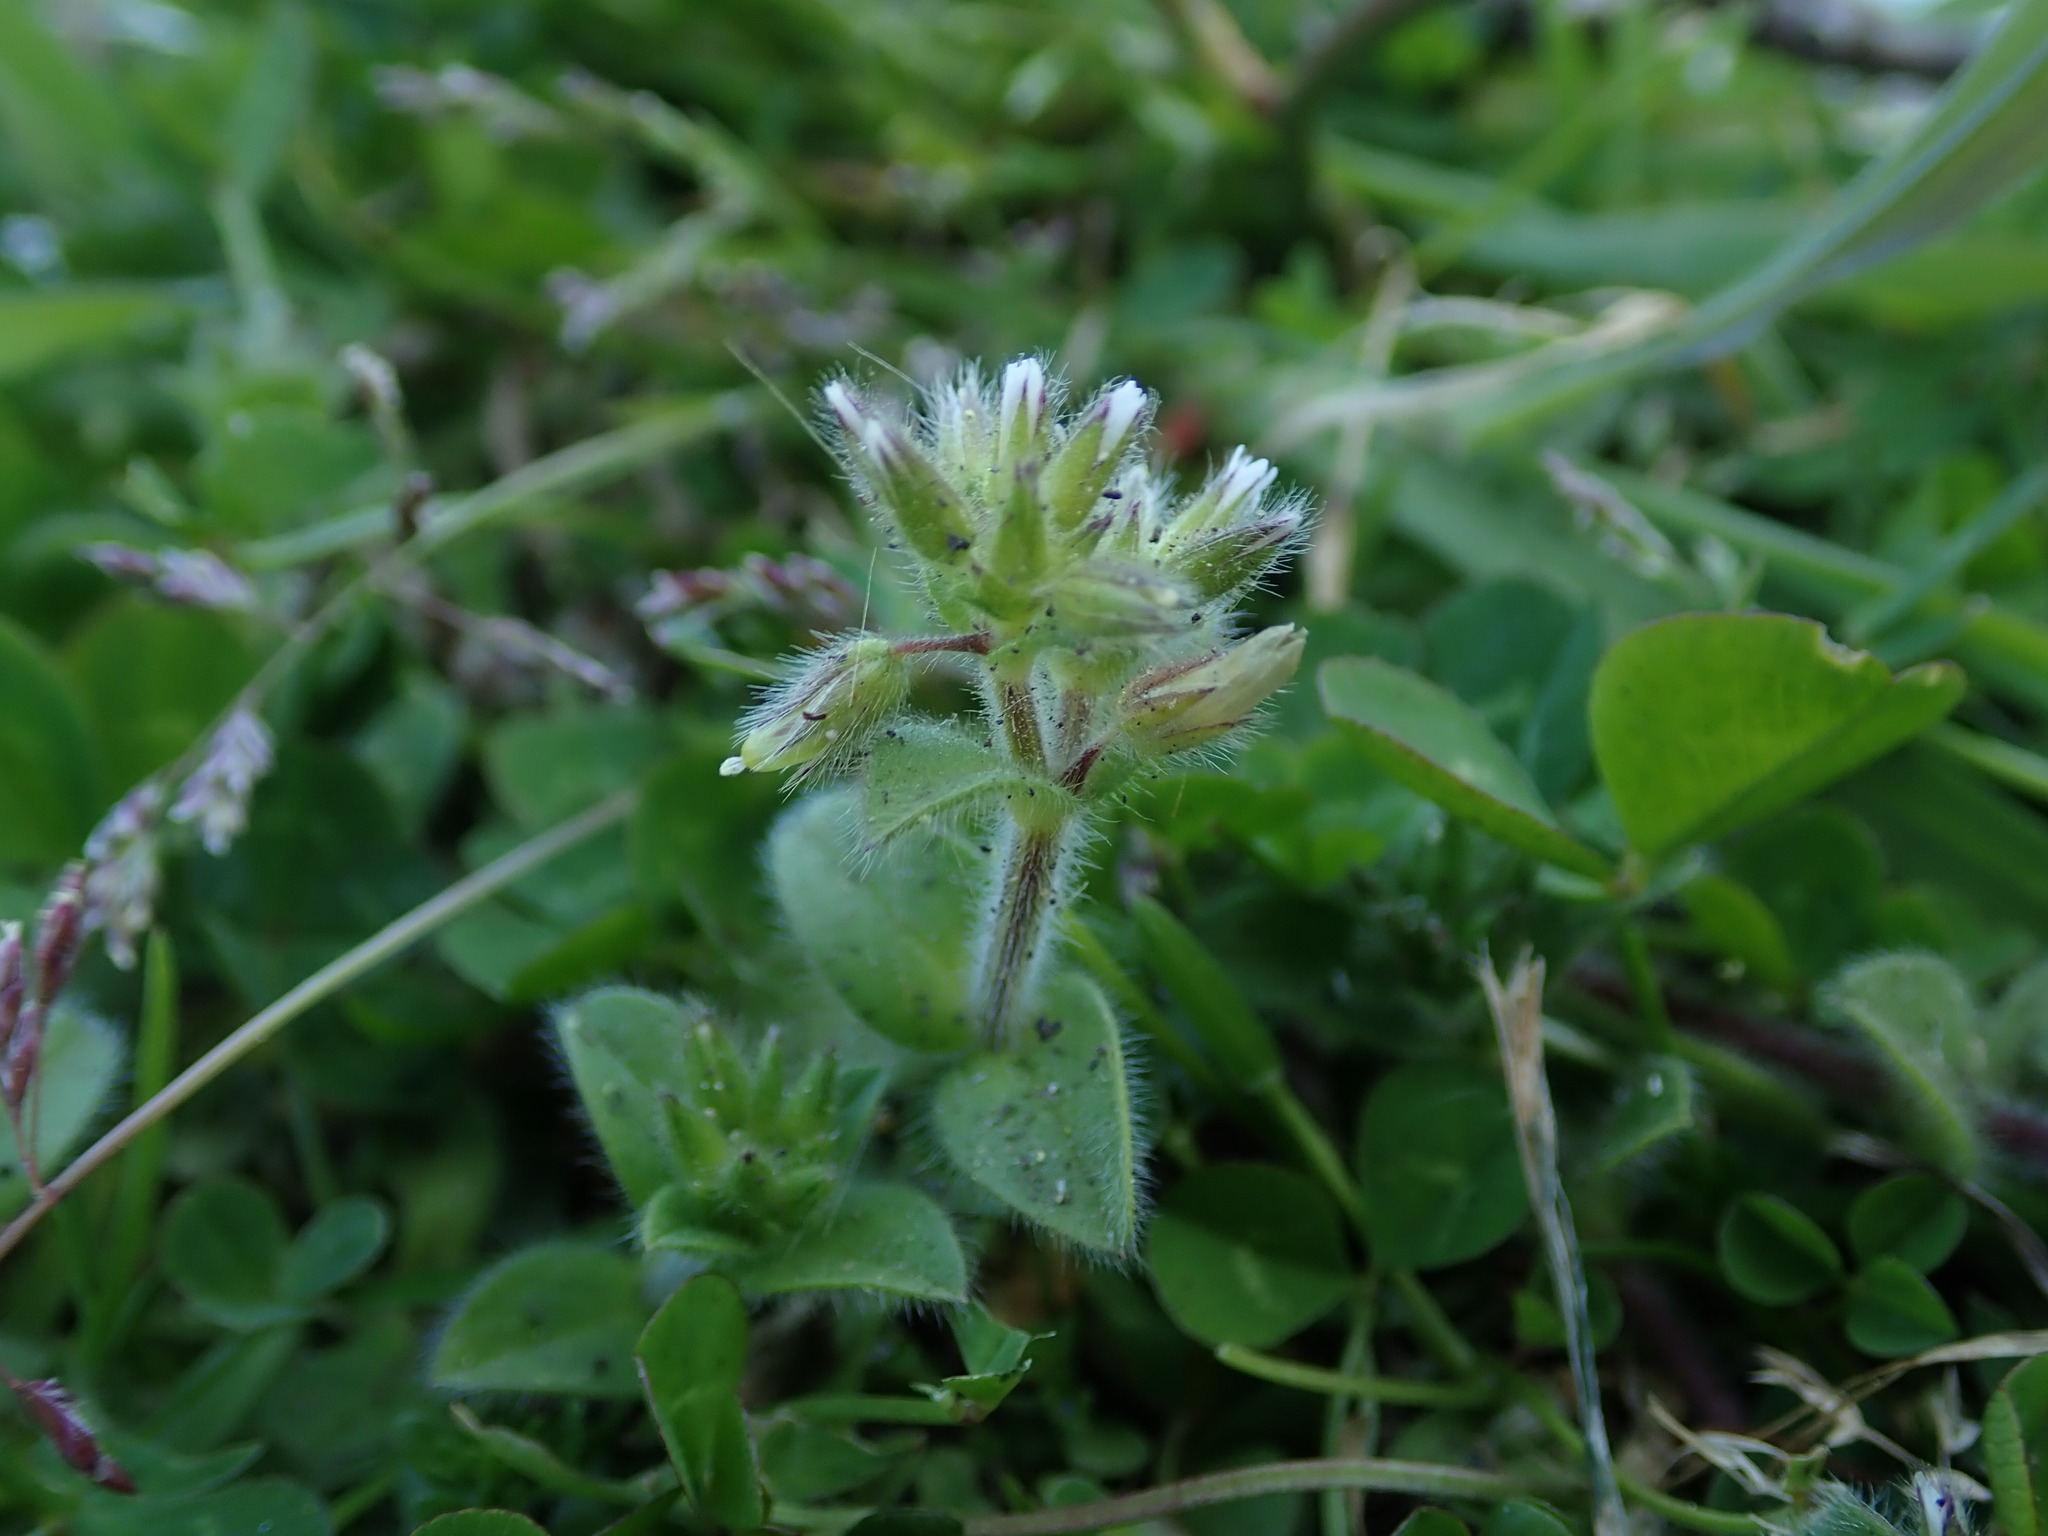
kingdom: Plantae
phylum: Tracheophyta
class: Magnoliopsida
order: Caryophyllales
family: Caryophyllaceae
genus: Cerastium
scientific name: Cerastium glomeratum
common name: Sticky chickweed
